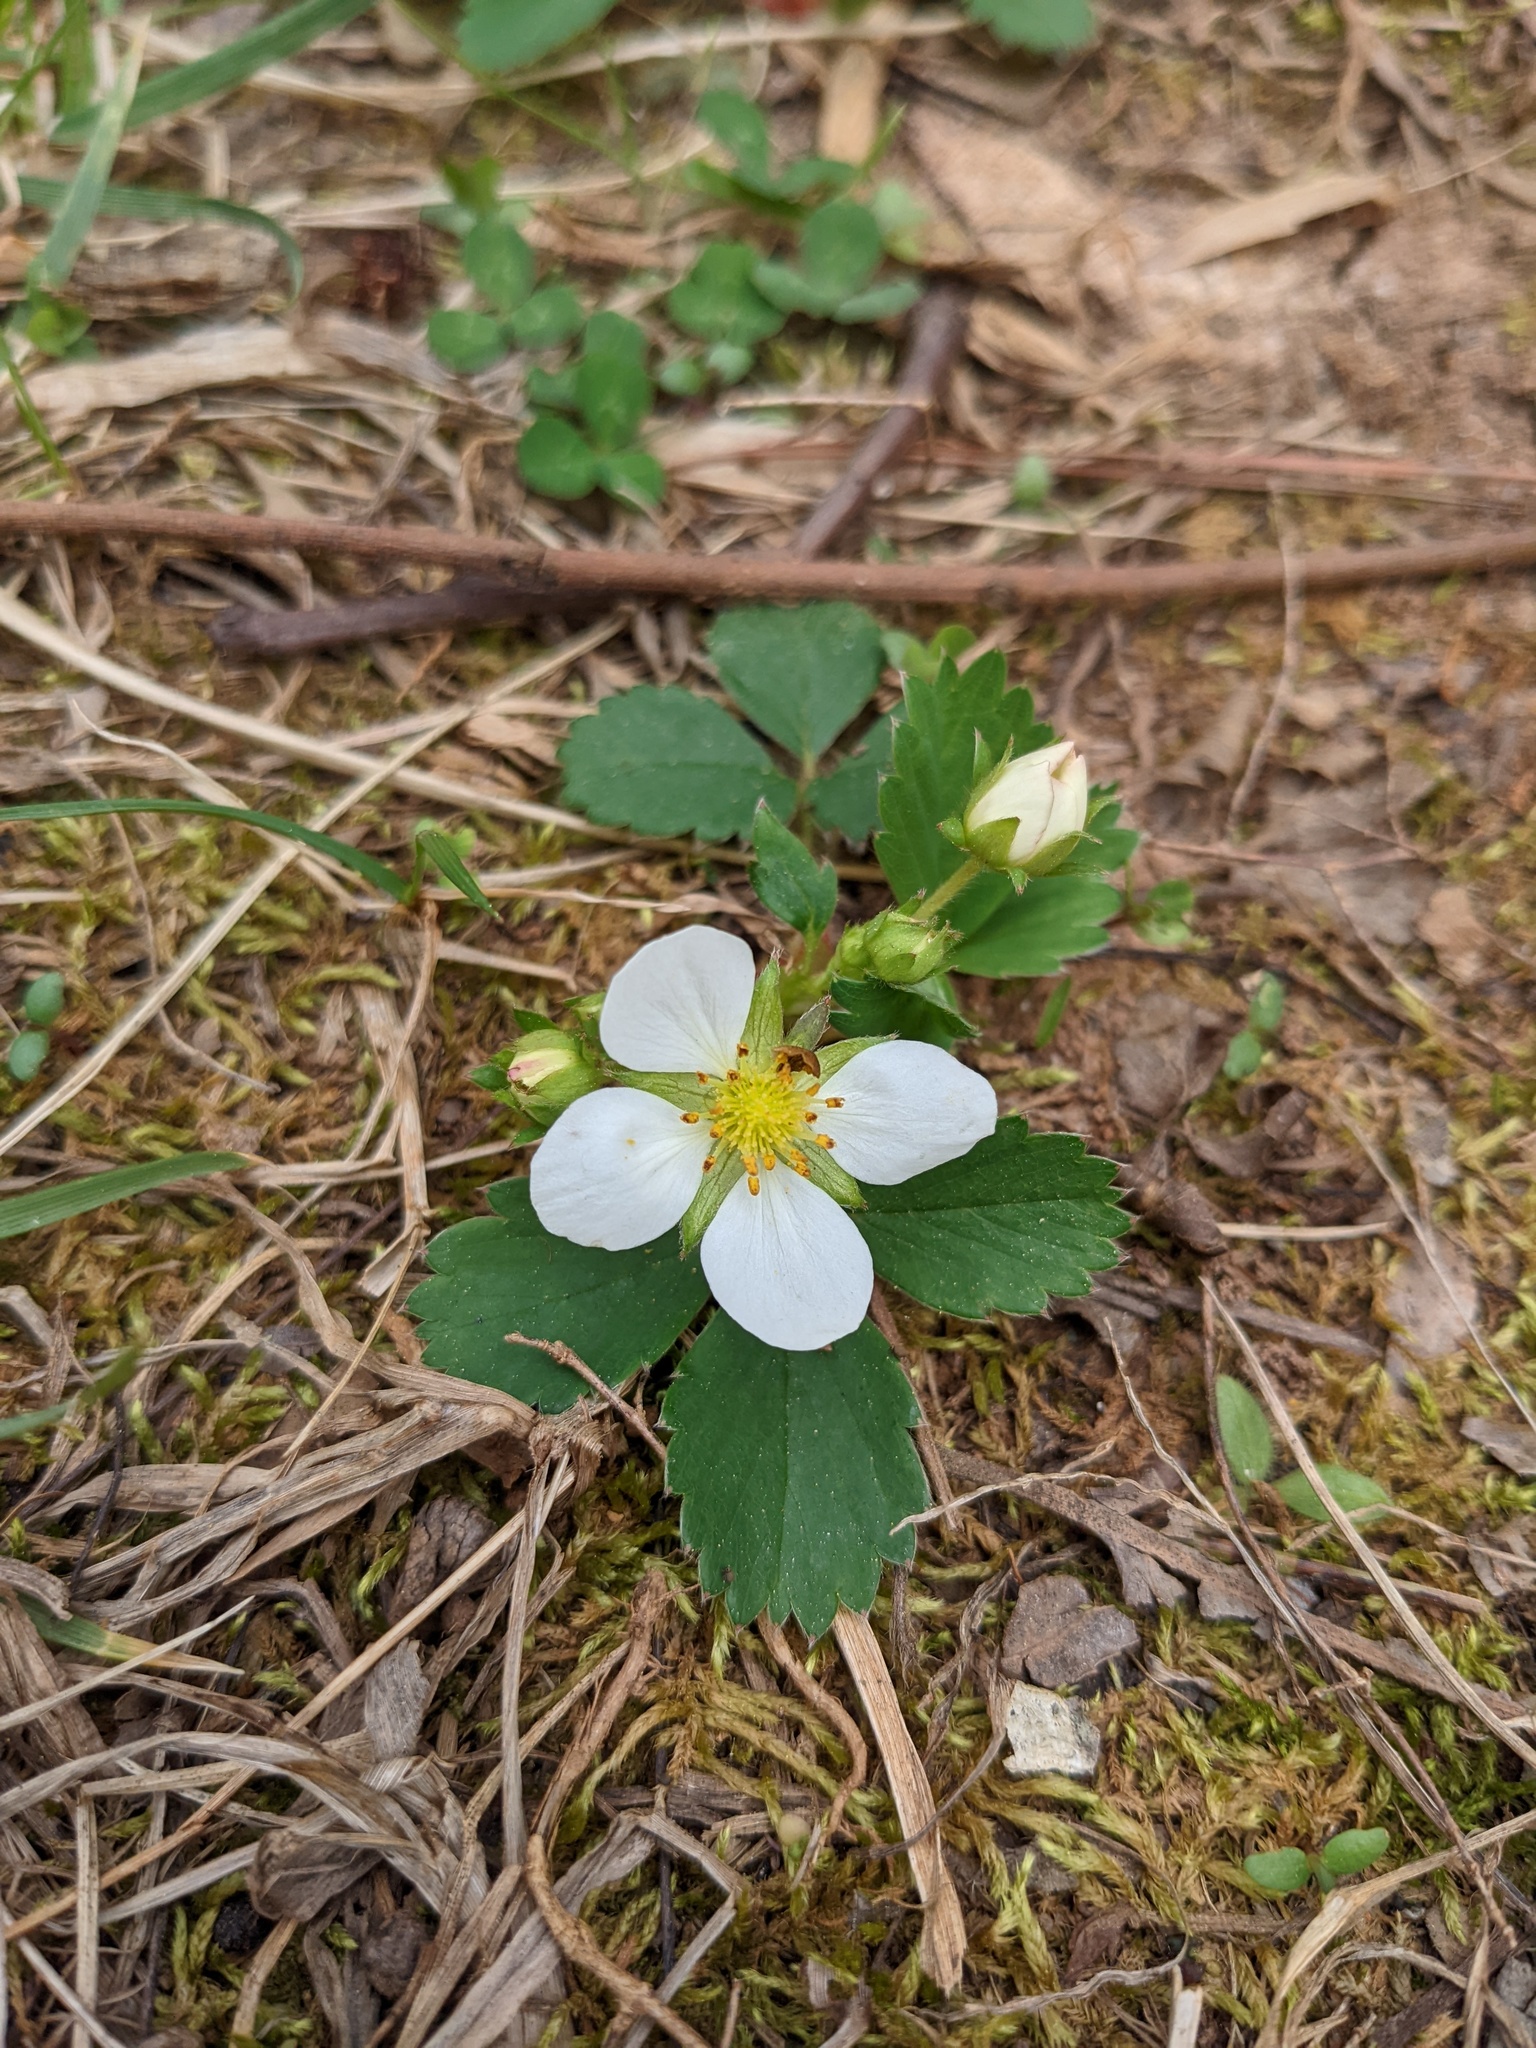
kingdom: Plantae
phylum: Tracheophyta
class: Magnoliopsida
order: Rosales
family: Rosaceae
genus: Fragaria
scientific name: Fragaria virginiana
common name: Thickleaved wild strawberry
